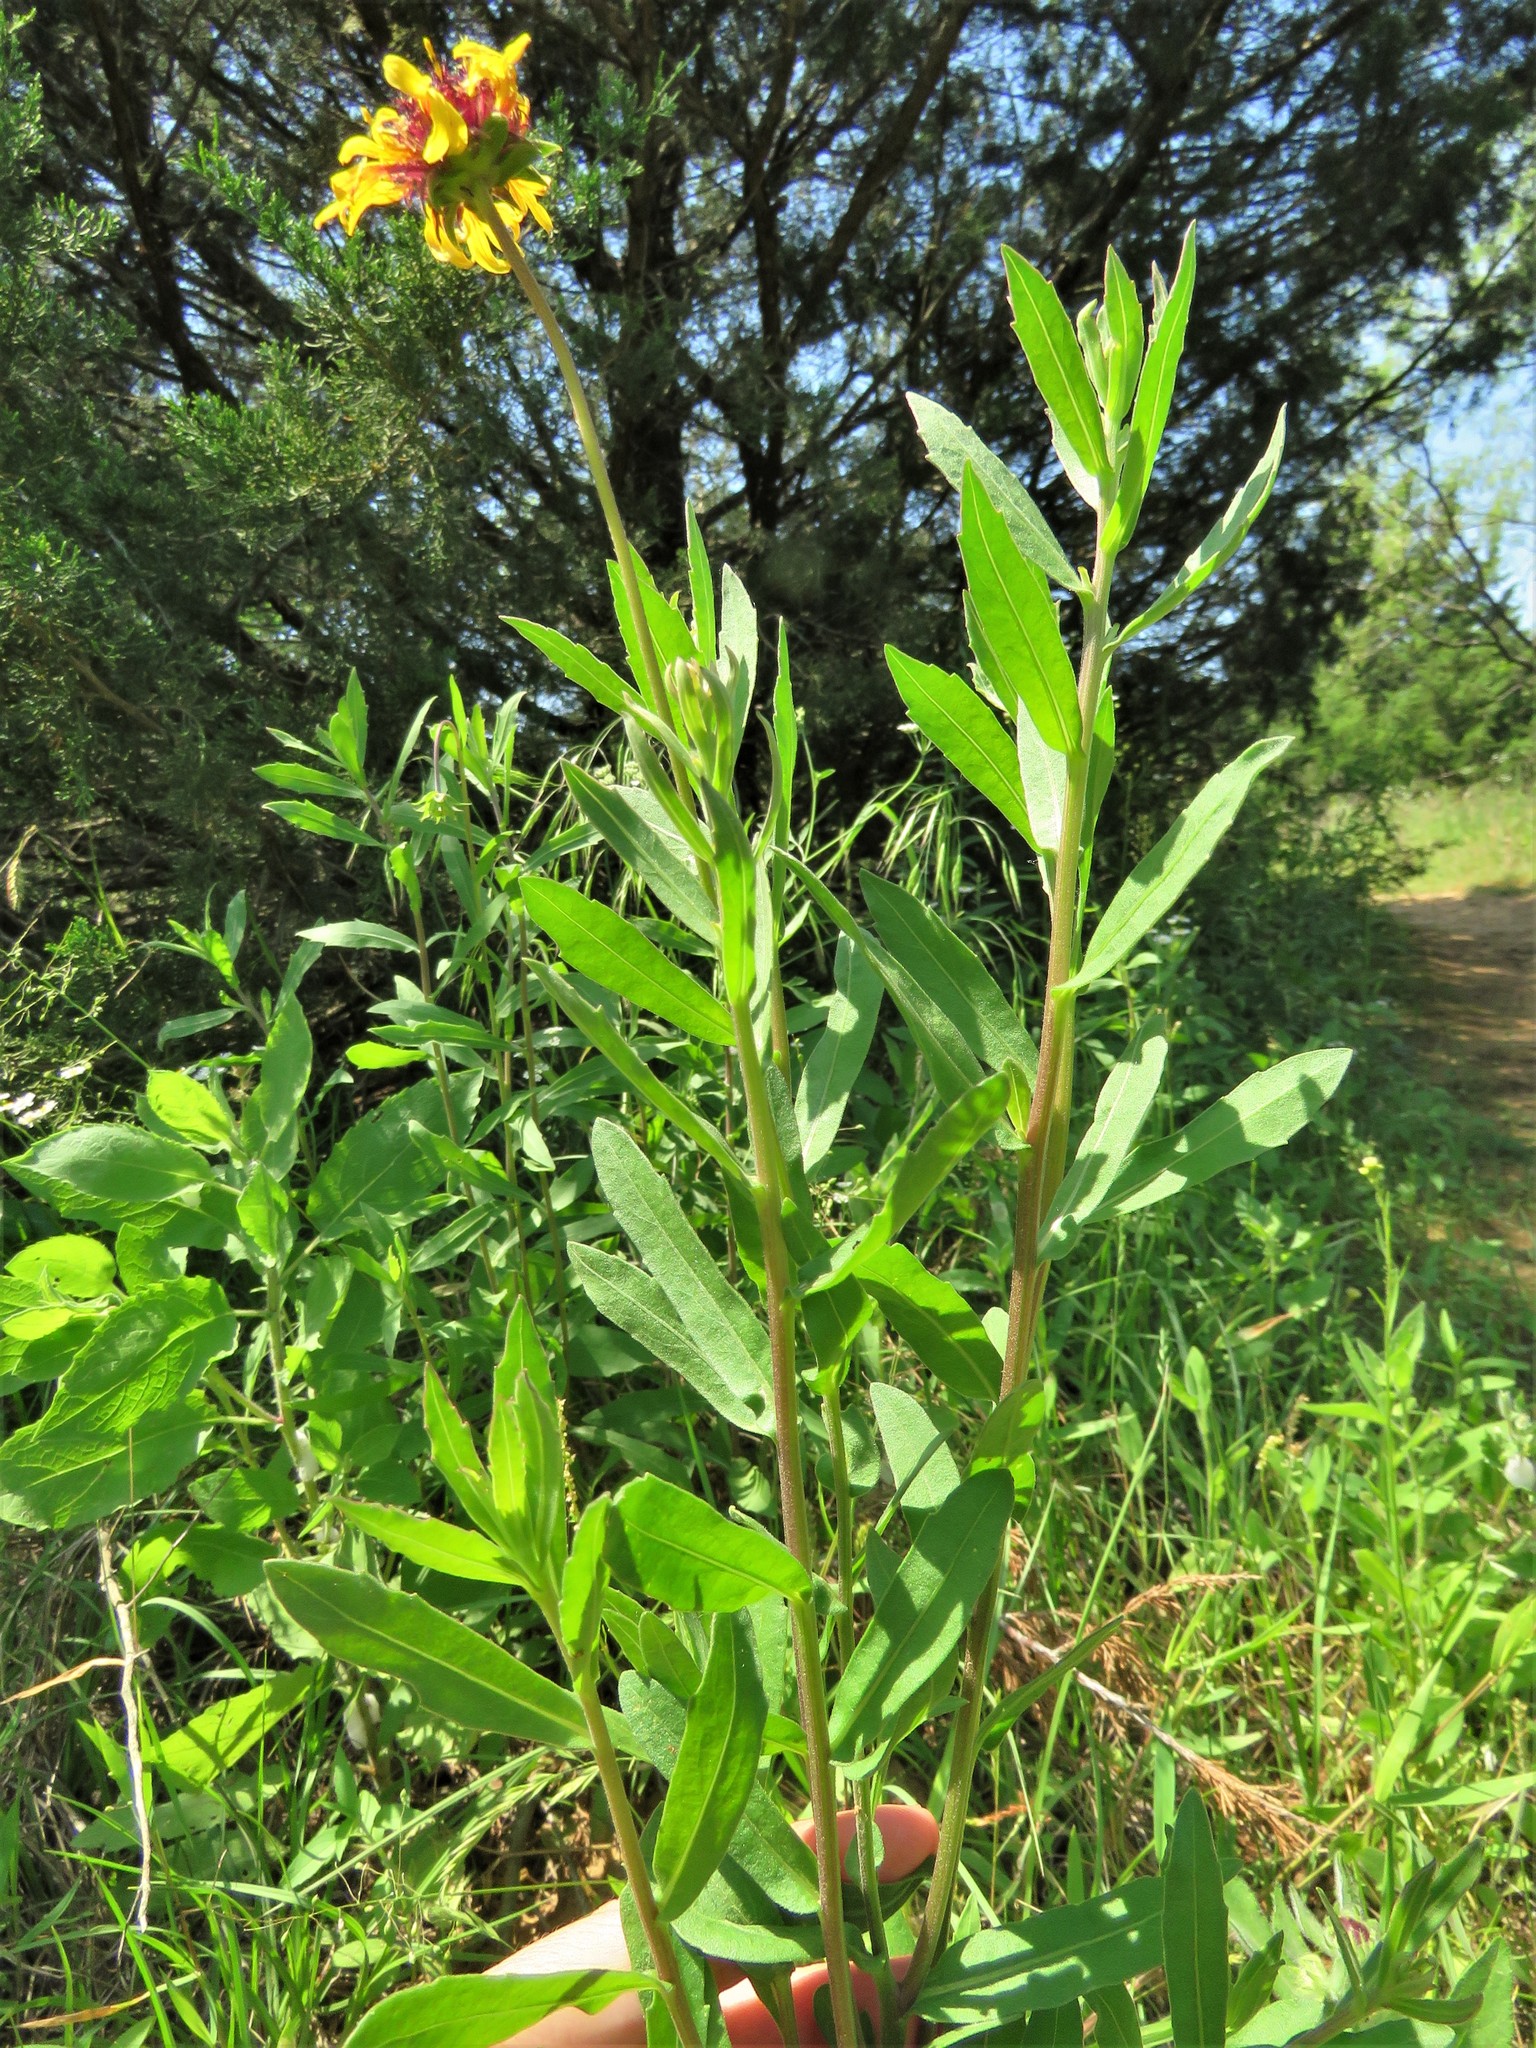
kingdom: Plantae
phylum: Tracheophyta
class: Magnoliopsida
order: Asterales
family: Asteraceae
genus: Gaillardia
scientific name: Gaillardia aestivalis
